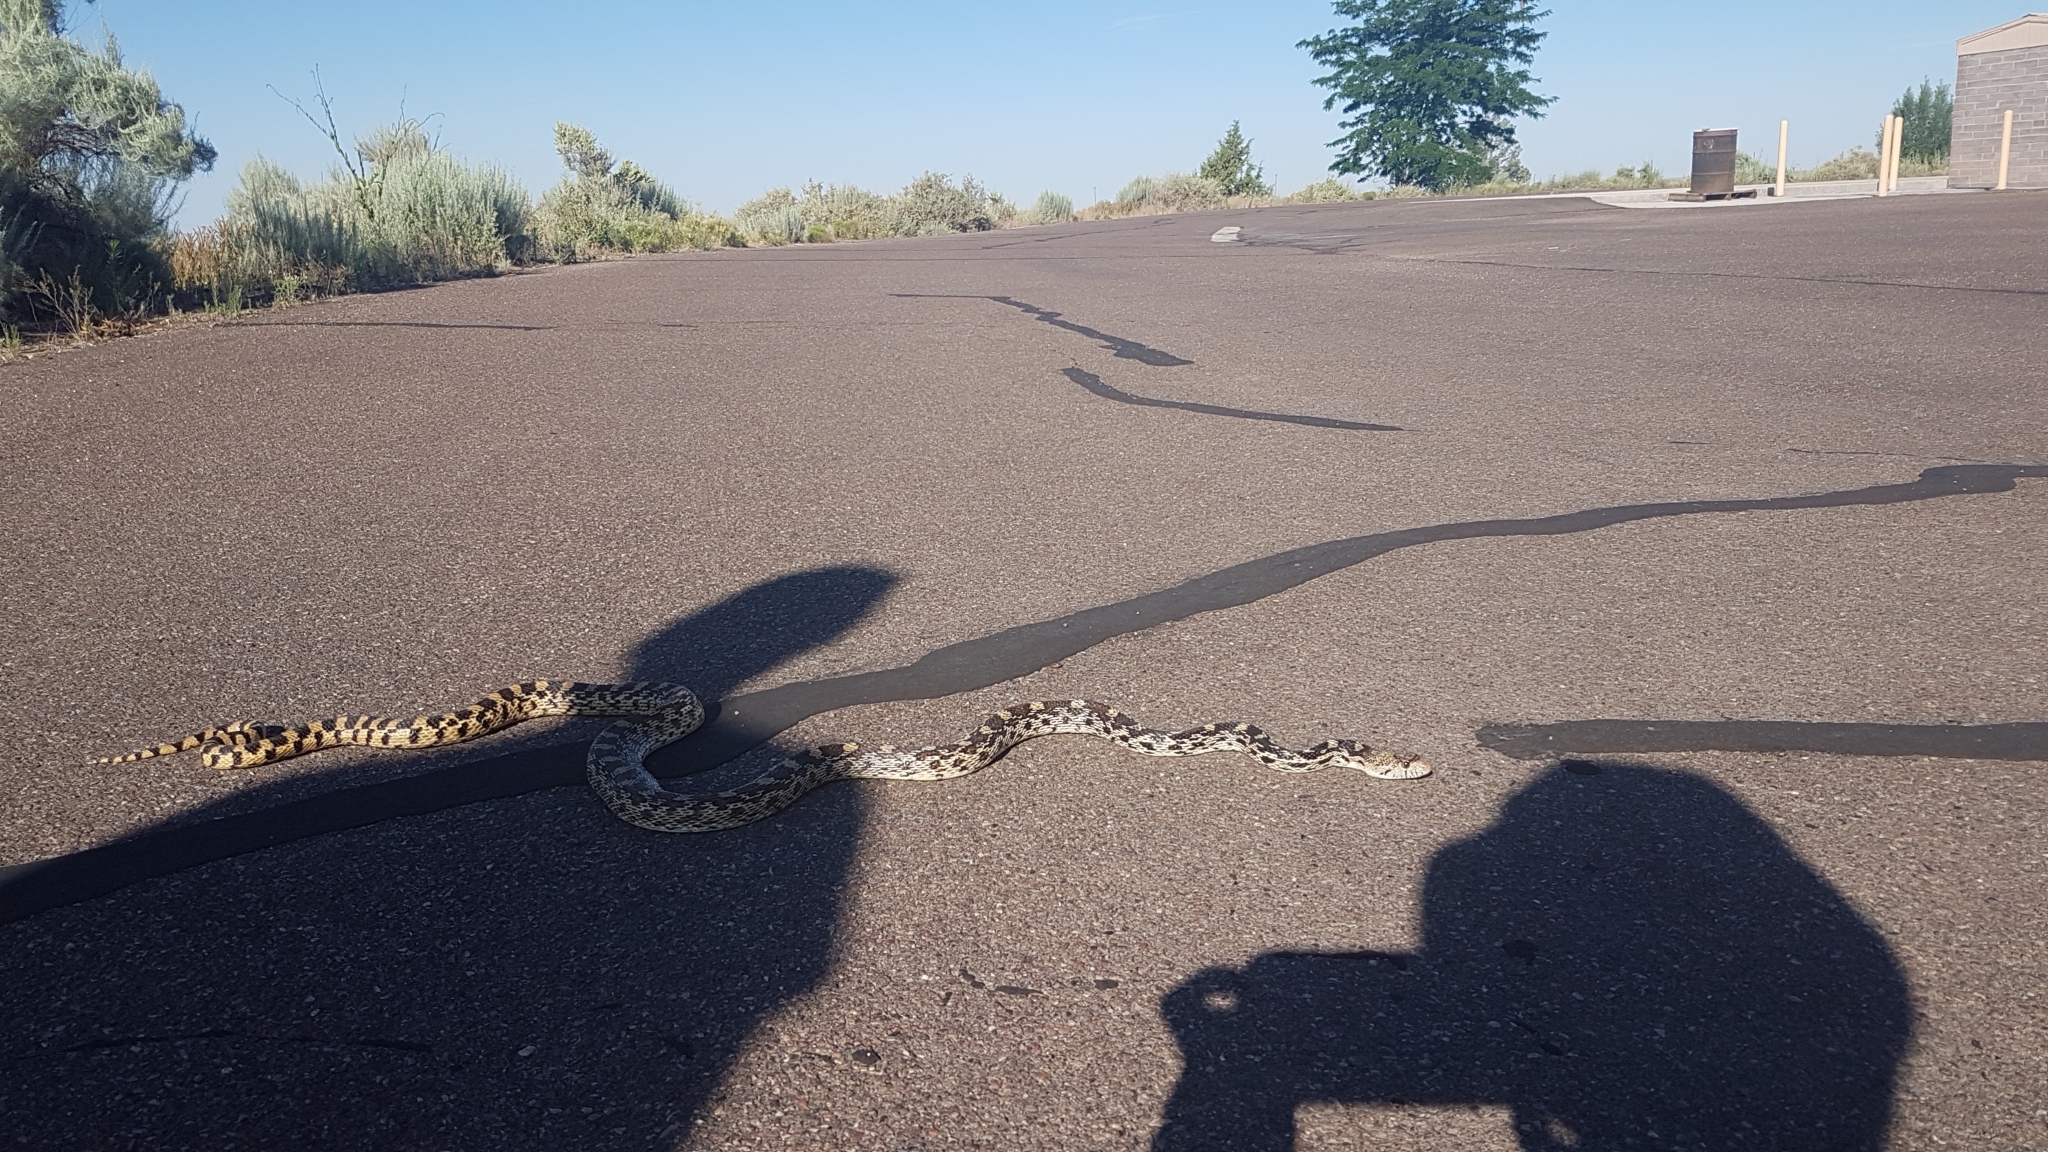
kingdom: Animalia
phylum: Chordata
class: Squamata
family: Colubridae
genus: Pituophis
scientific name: Pituophis catenifer
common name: Gopher snake
